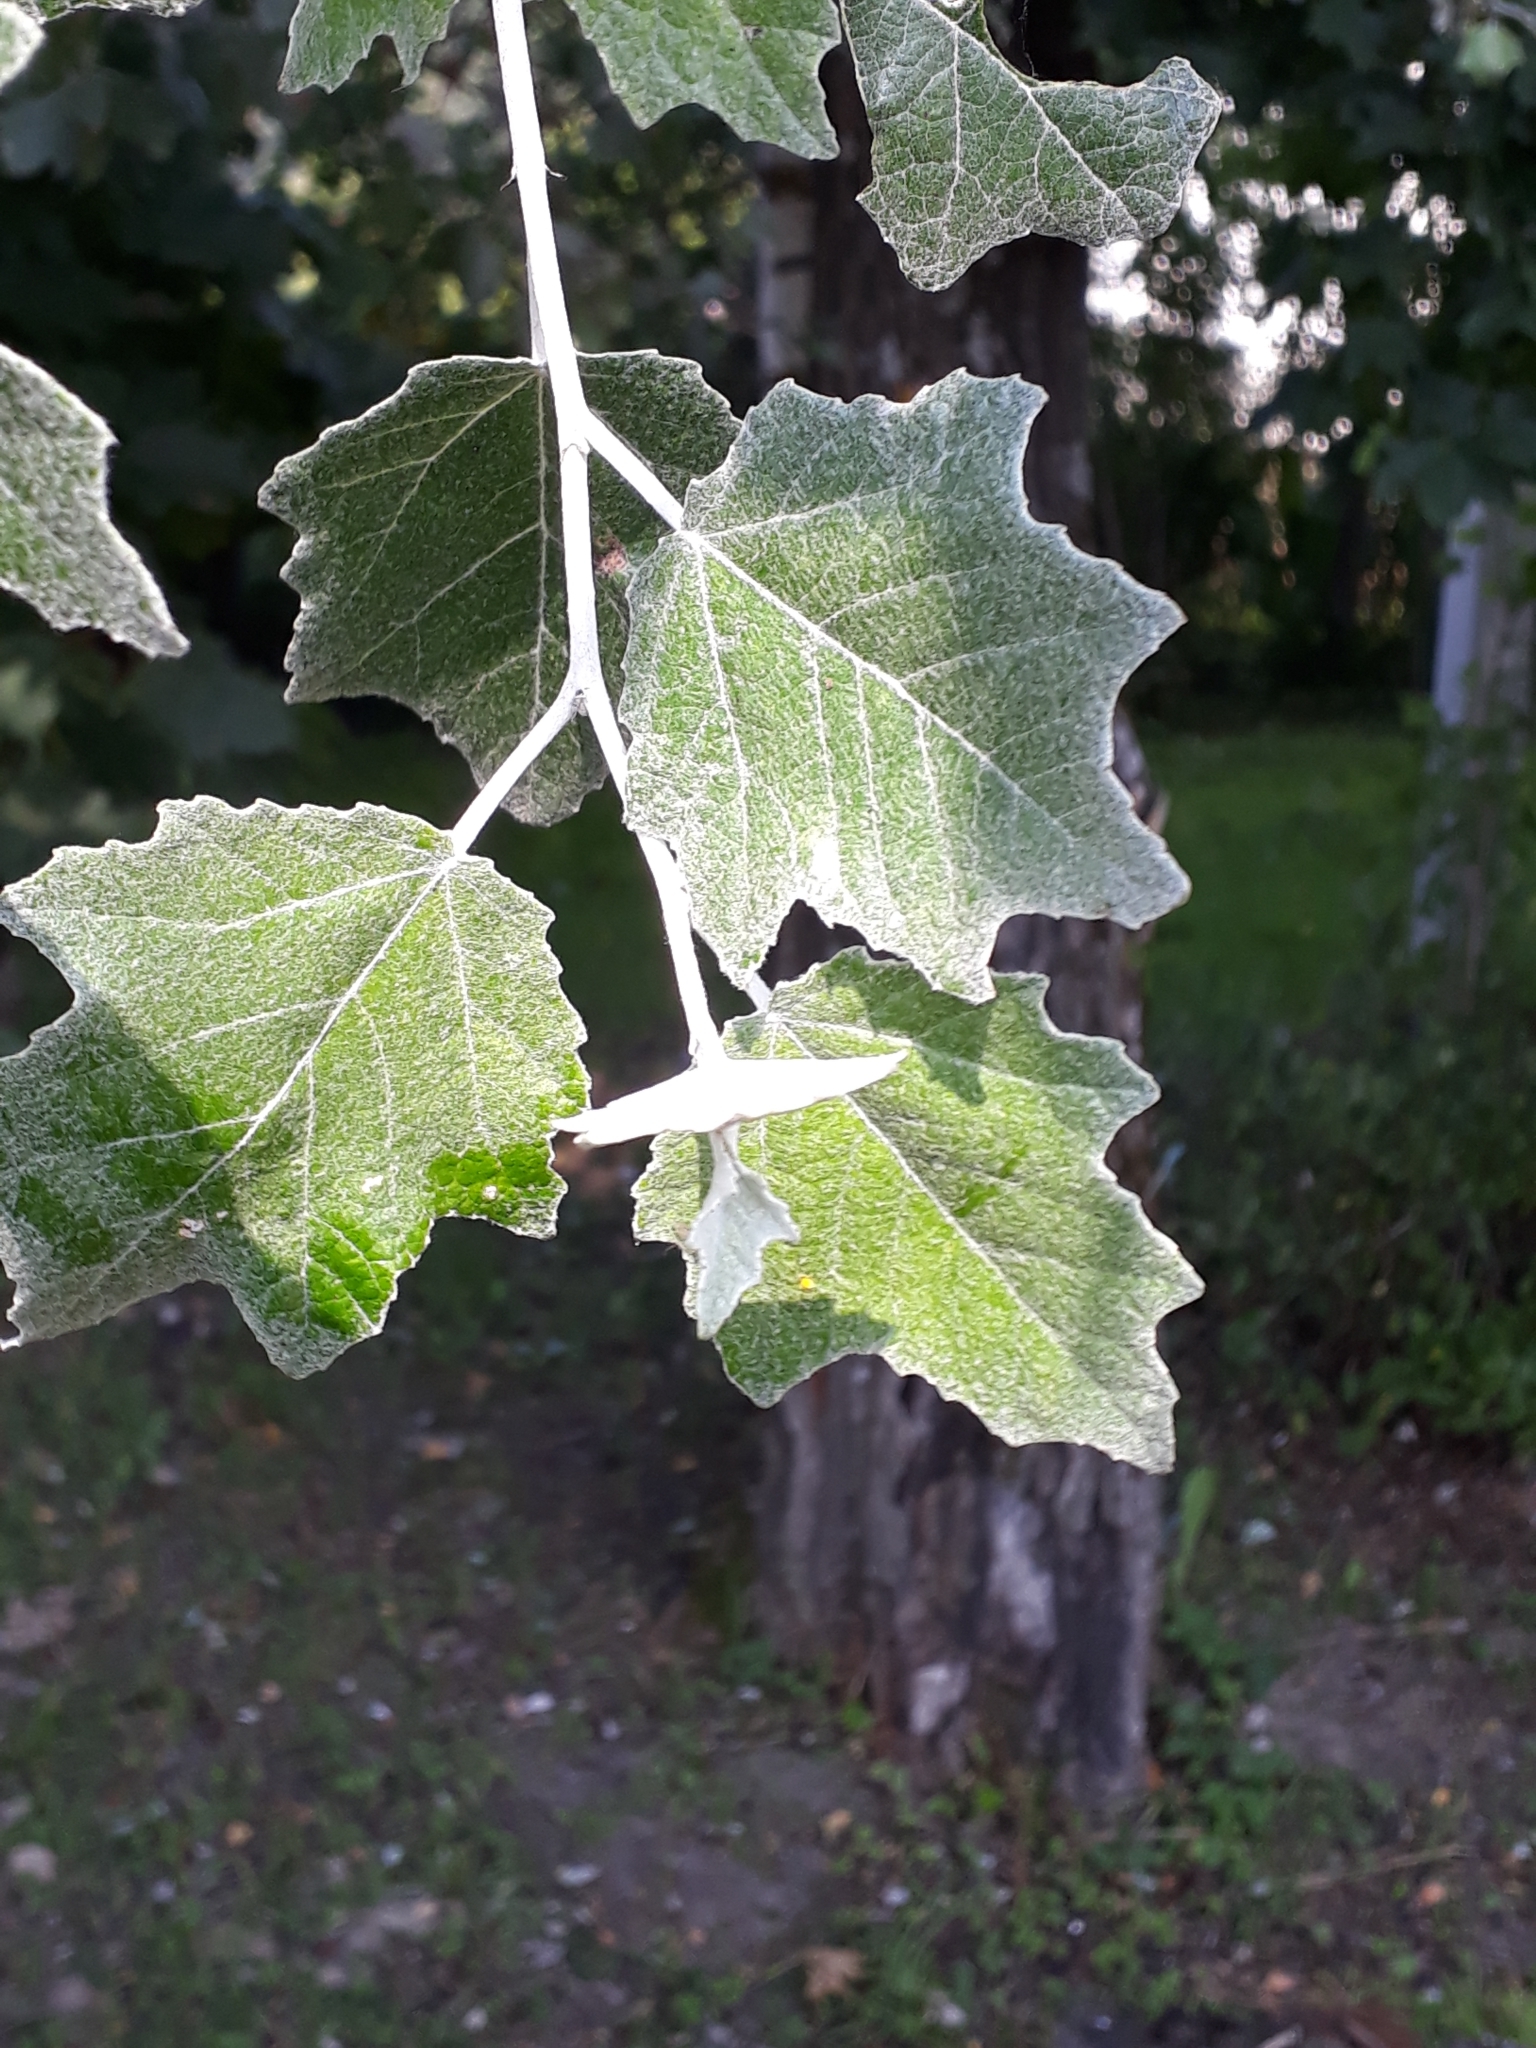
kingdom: Plantae
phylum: Tracheophyta
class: Magnoliopsida
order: Malpighiales
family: Salicaceae
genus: Populus
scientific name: Populus alba
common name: White poplar
